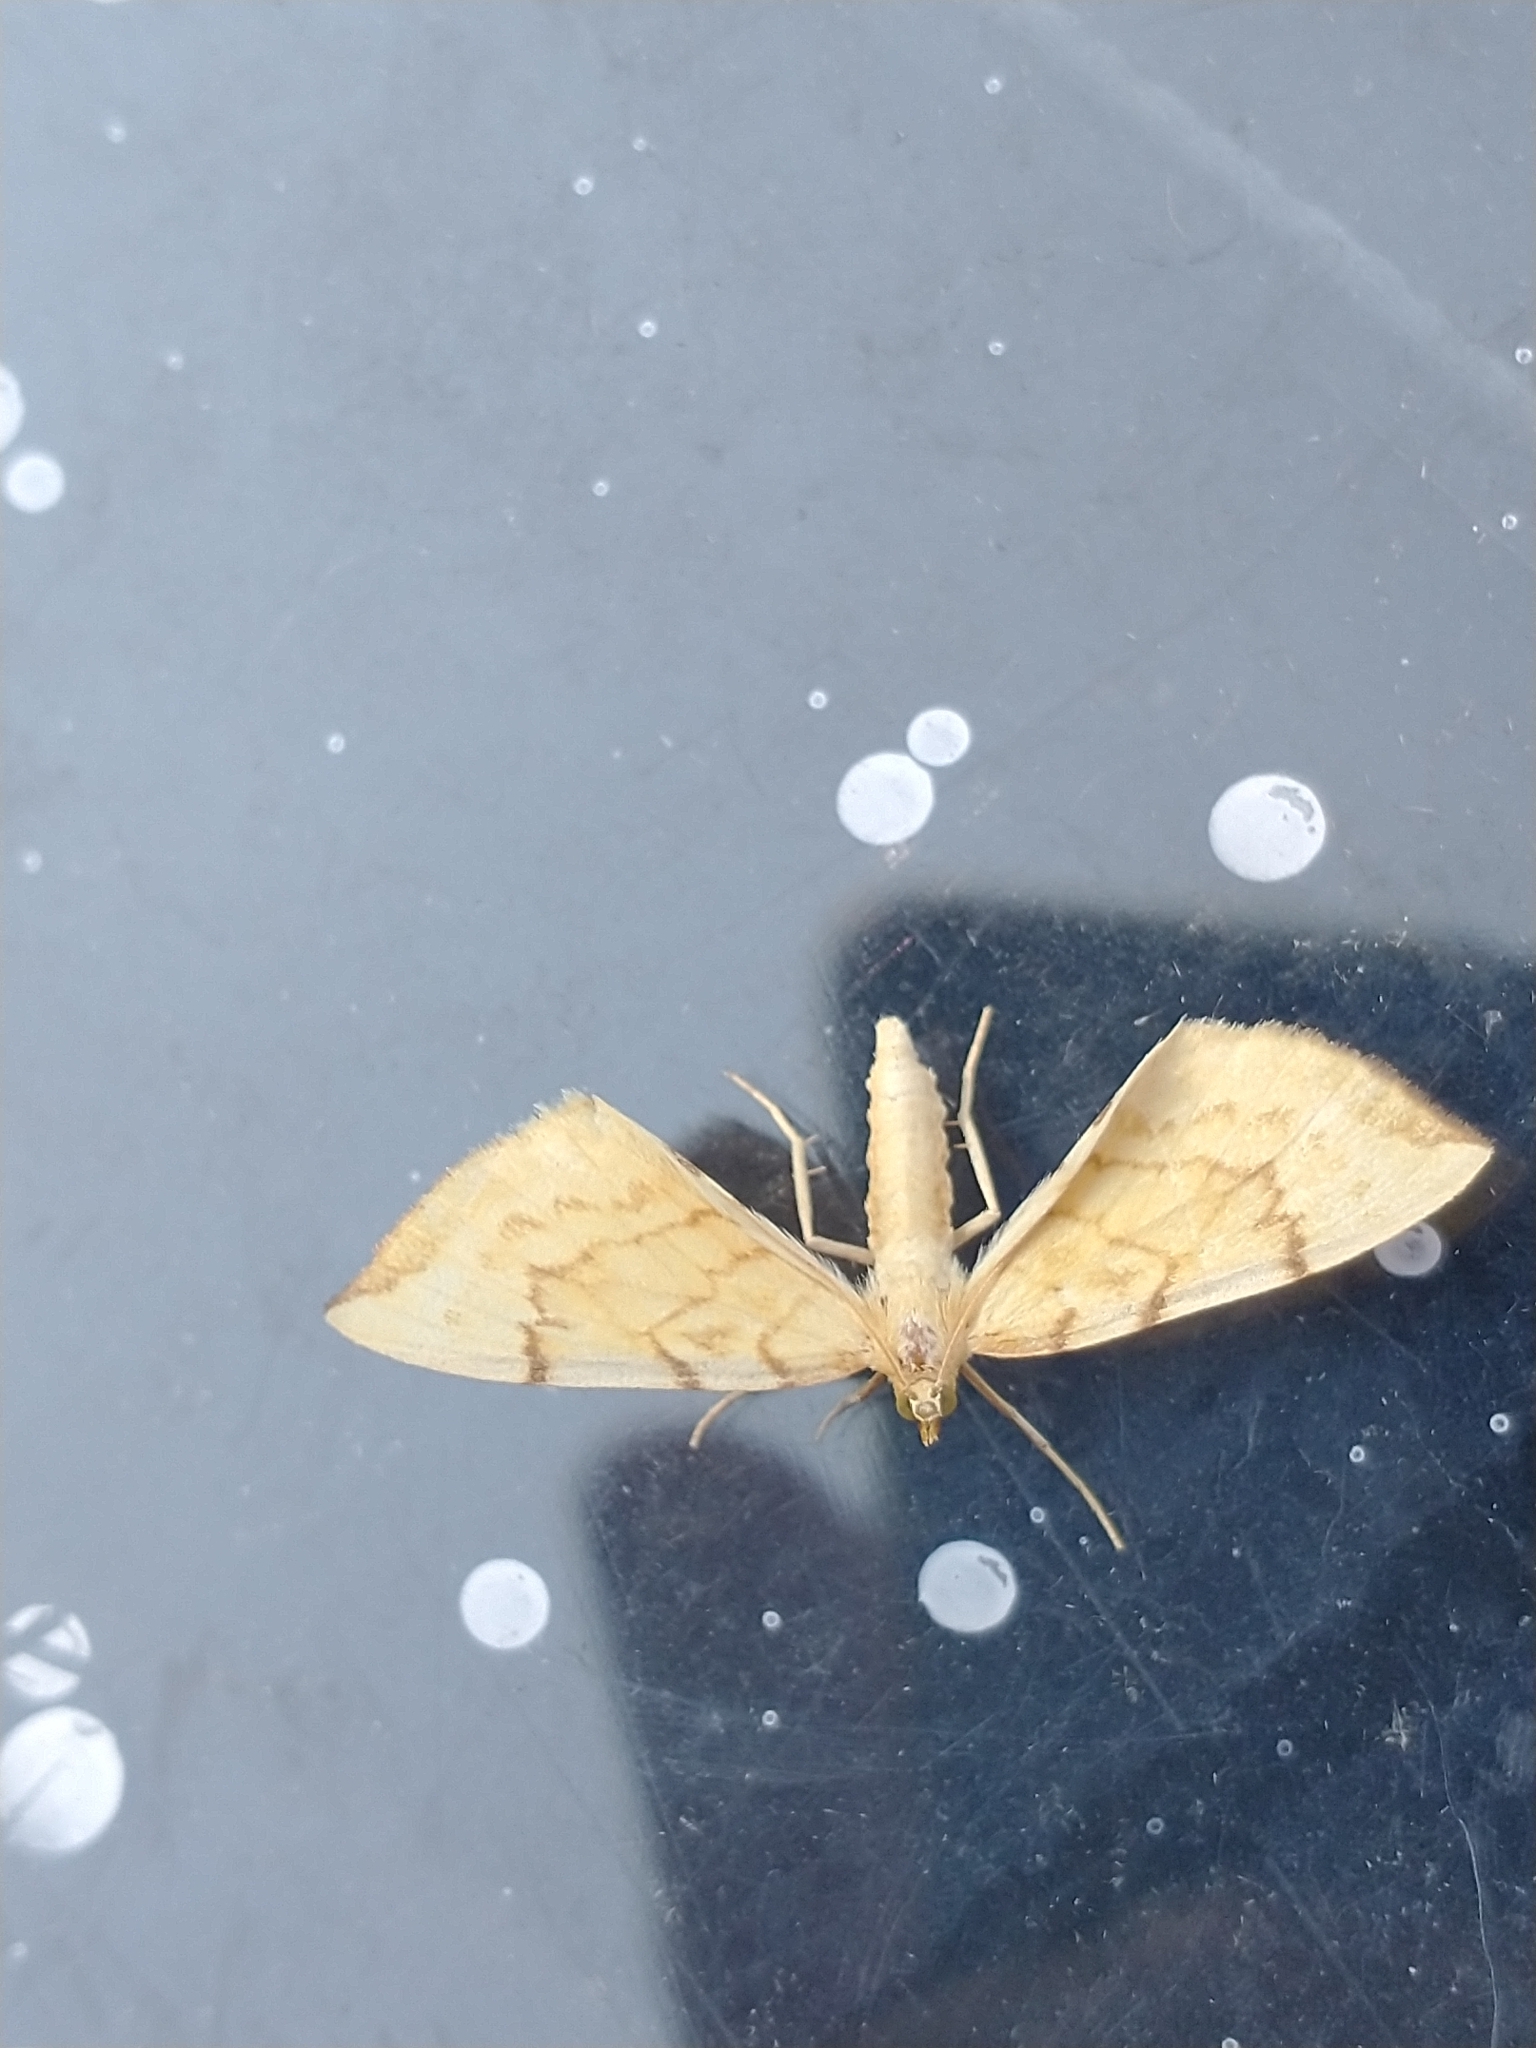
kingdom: Animalia
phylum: Arthropoda
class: Insecta
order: Lepidoptera
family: Geometridae
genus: Eulithis
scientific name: Eulithis pyraliata
